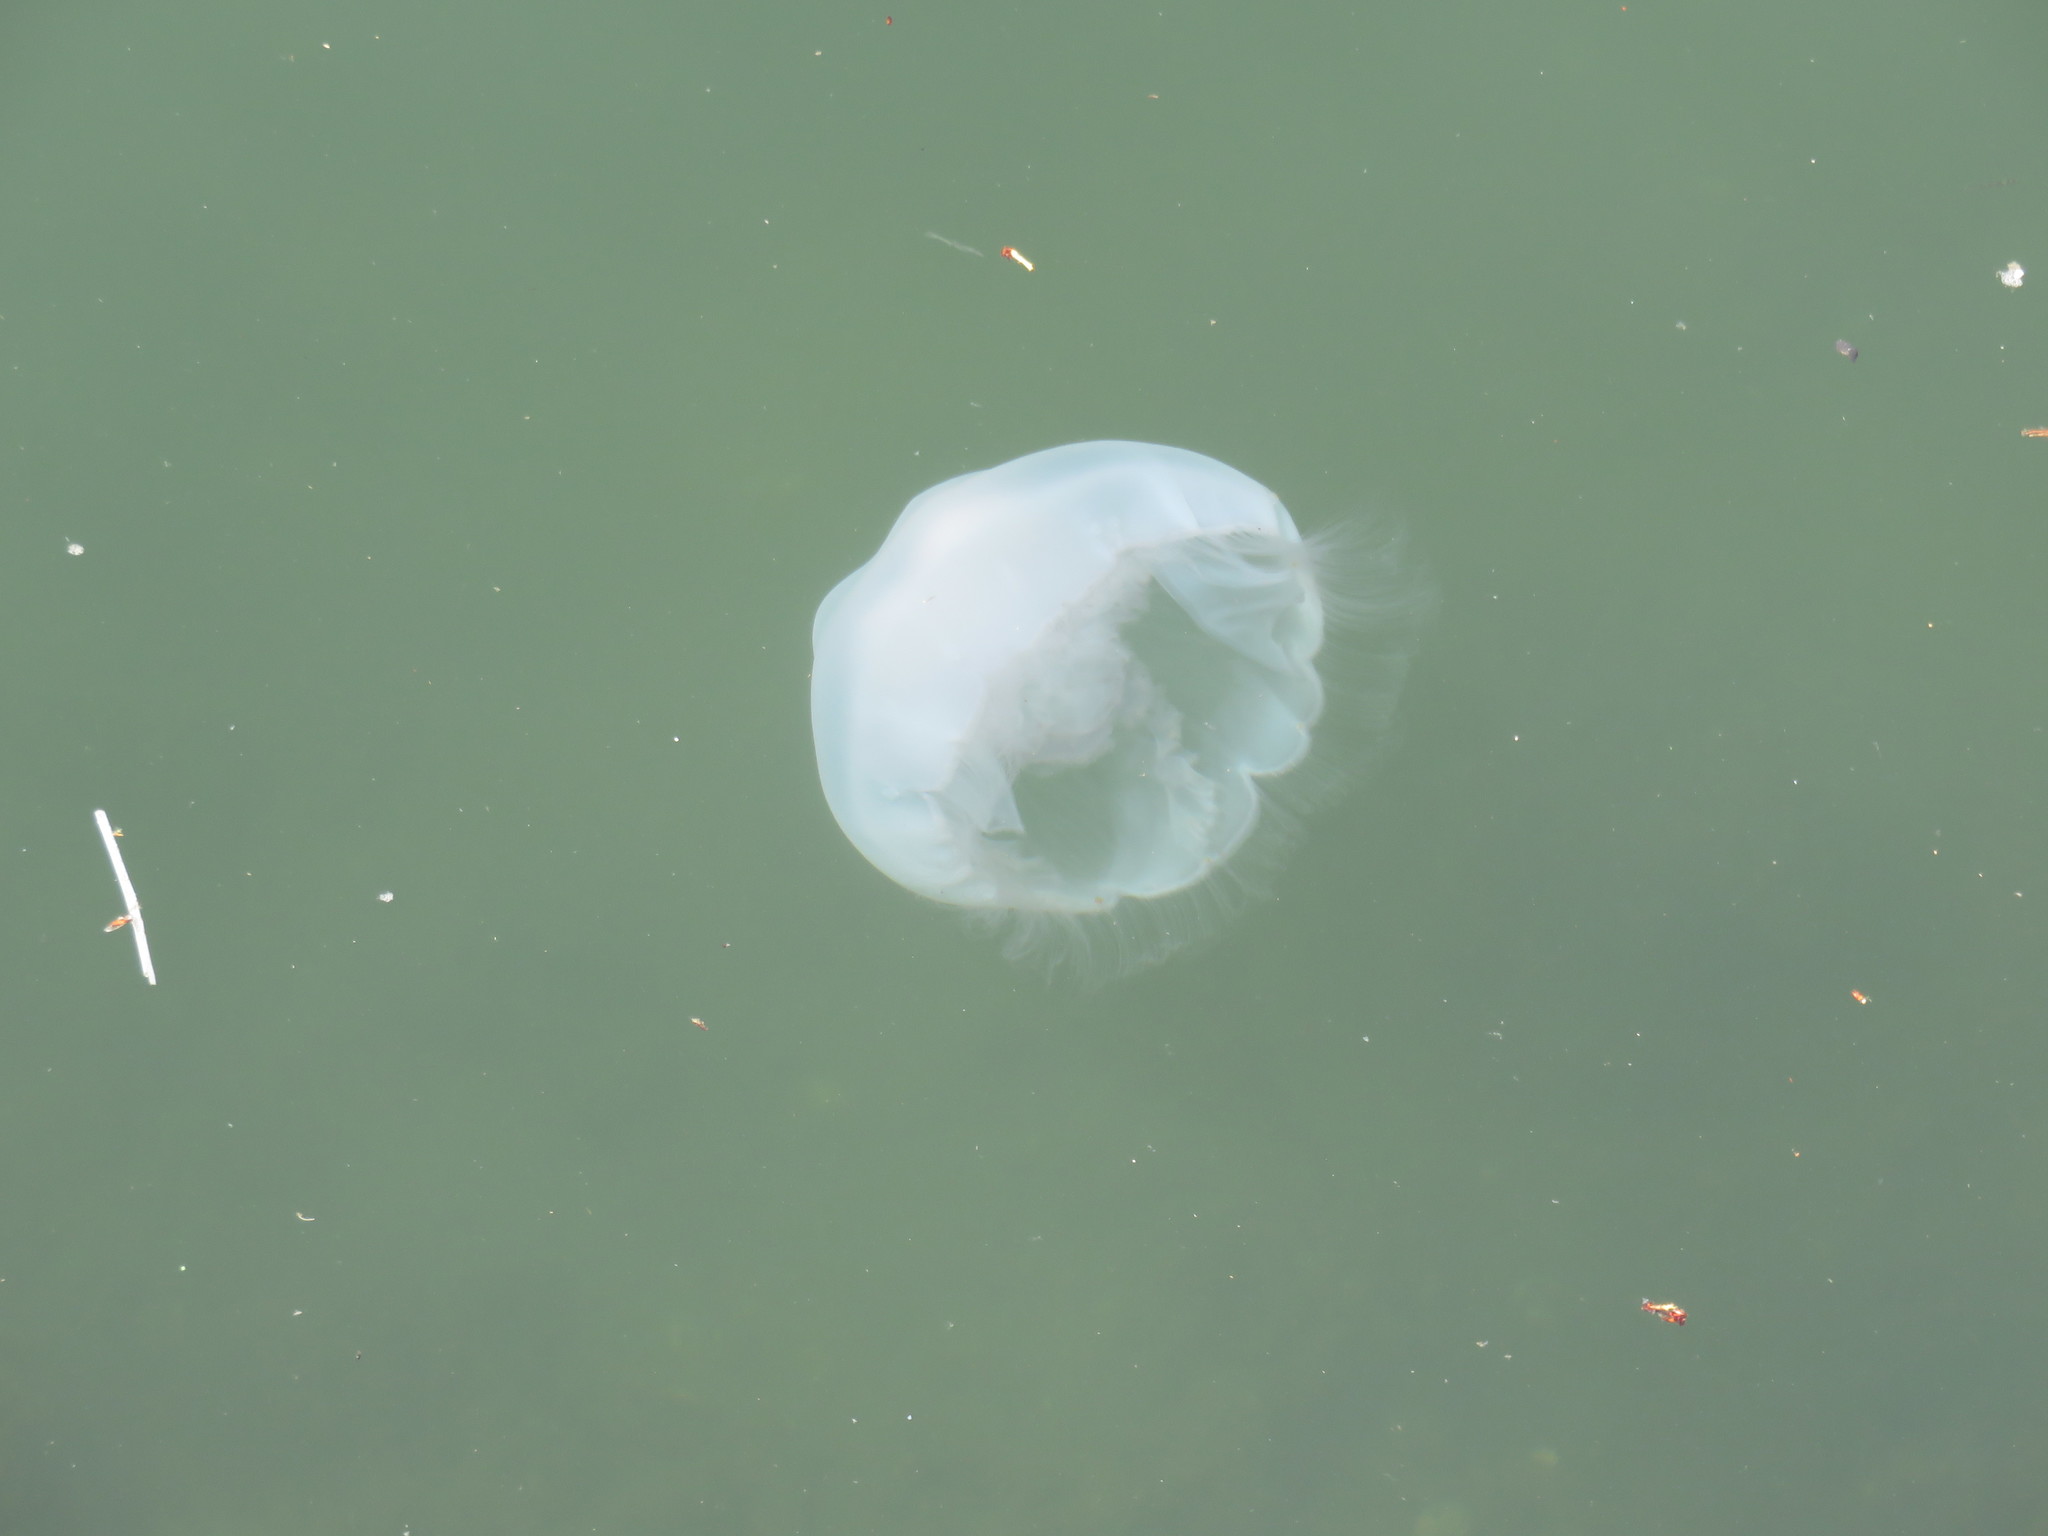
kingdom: Animalia
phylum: Cnidaria
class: Scyphozoa
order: Semaeostomeae
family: Ulmaridae
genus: Aurelia
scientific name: Aurelia coerulea
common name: Moon jellyfish
